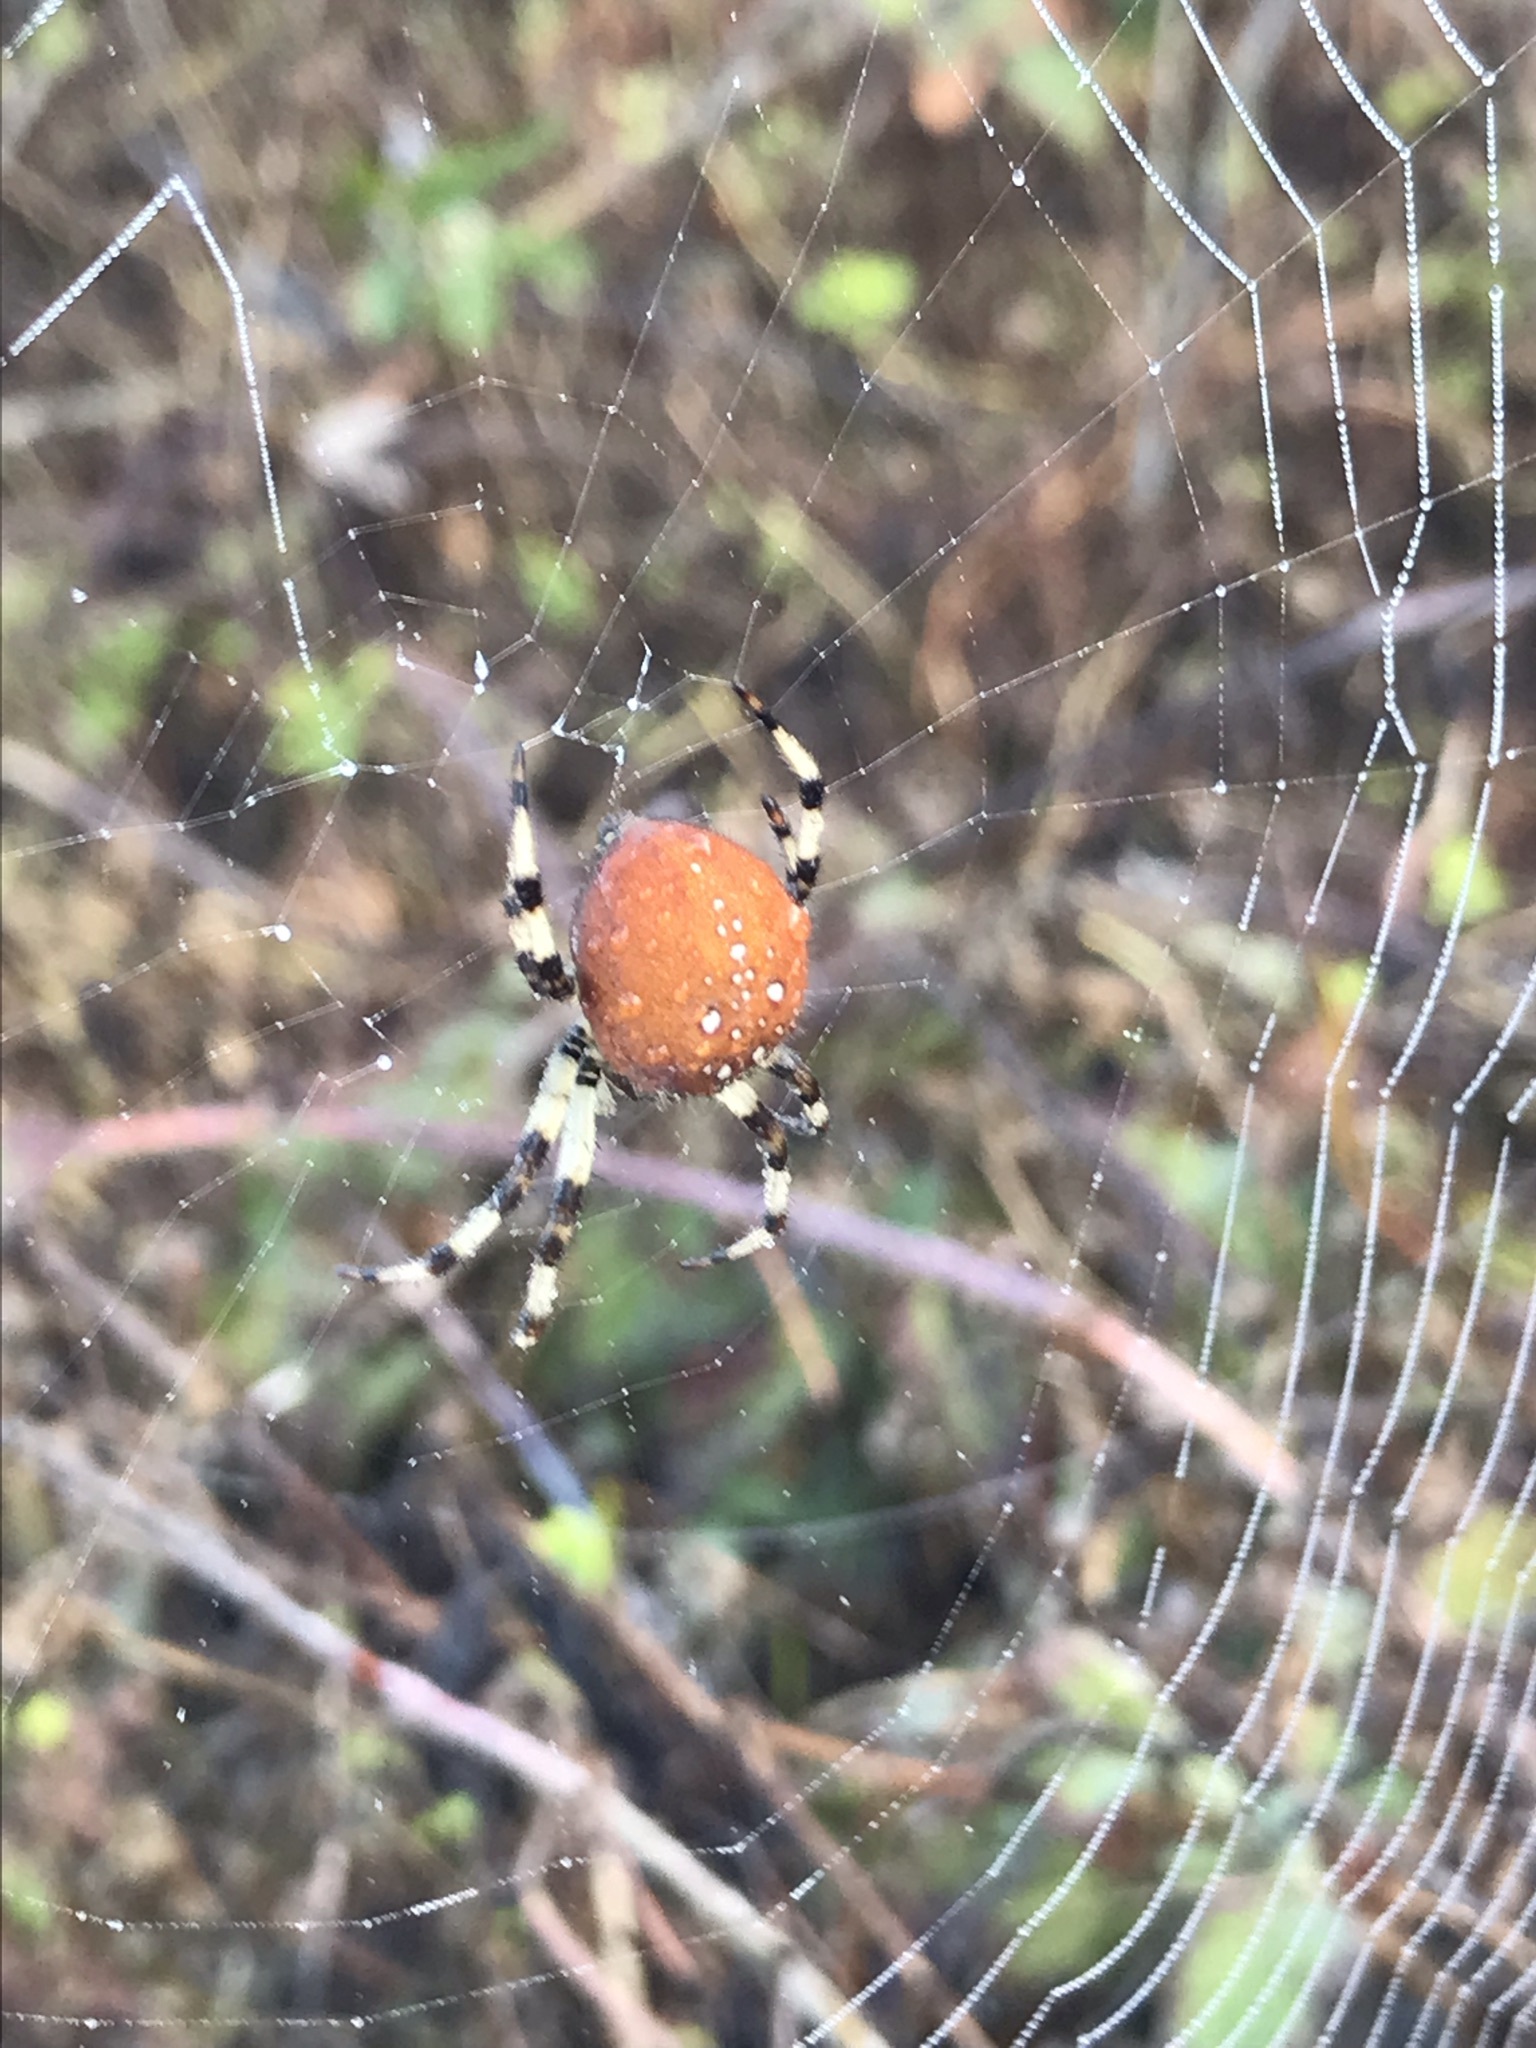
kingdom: Animalia
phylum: Arthropoda
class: Arachnida
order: Araneae
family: Araneidae
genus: Araneus
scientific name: Araneus trifolium
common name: Shamrock orbweaver
